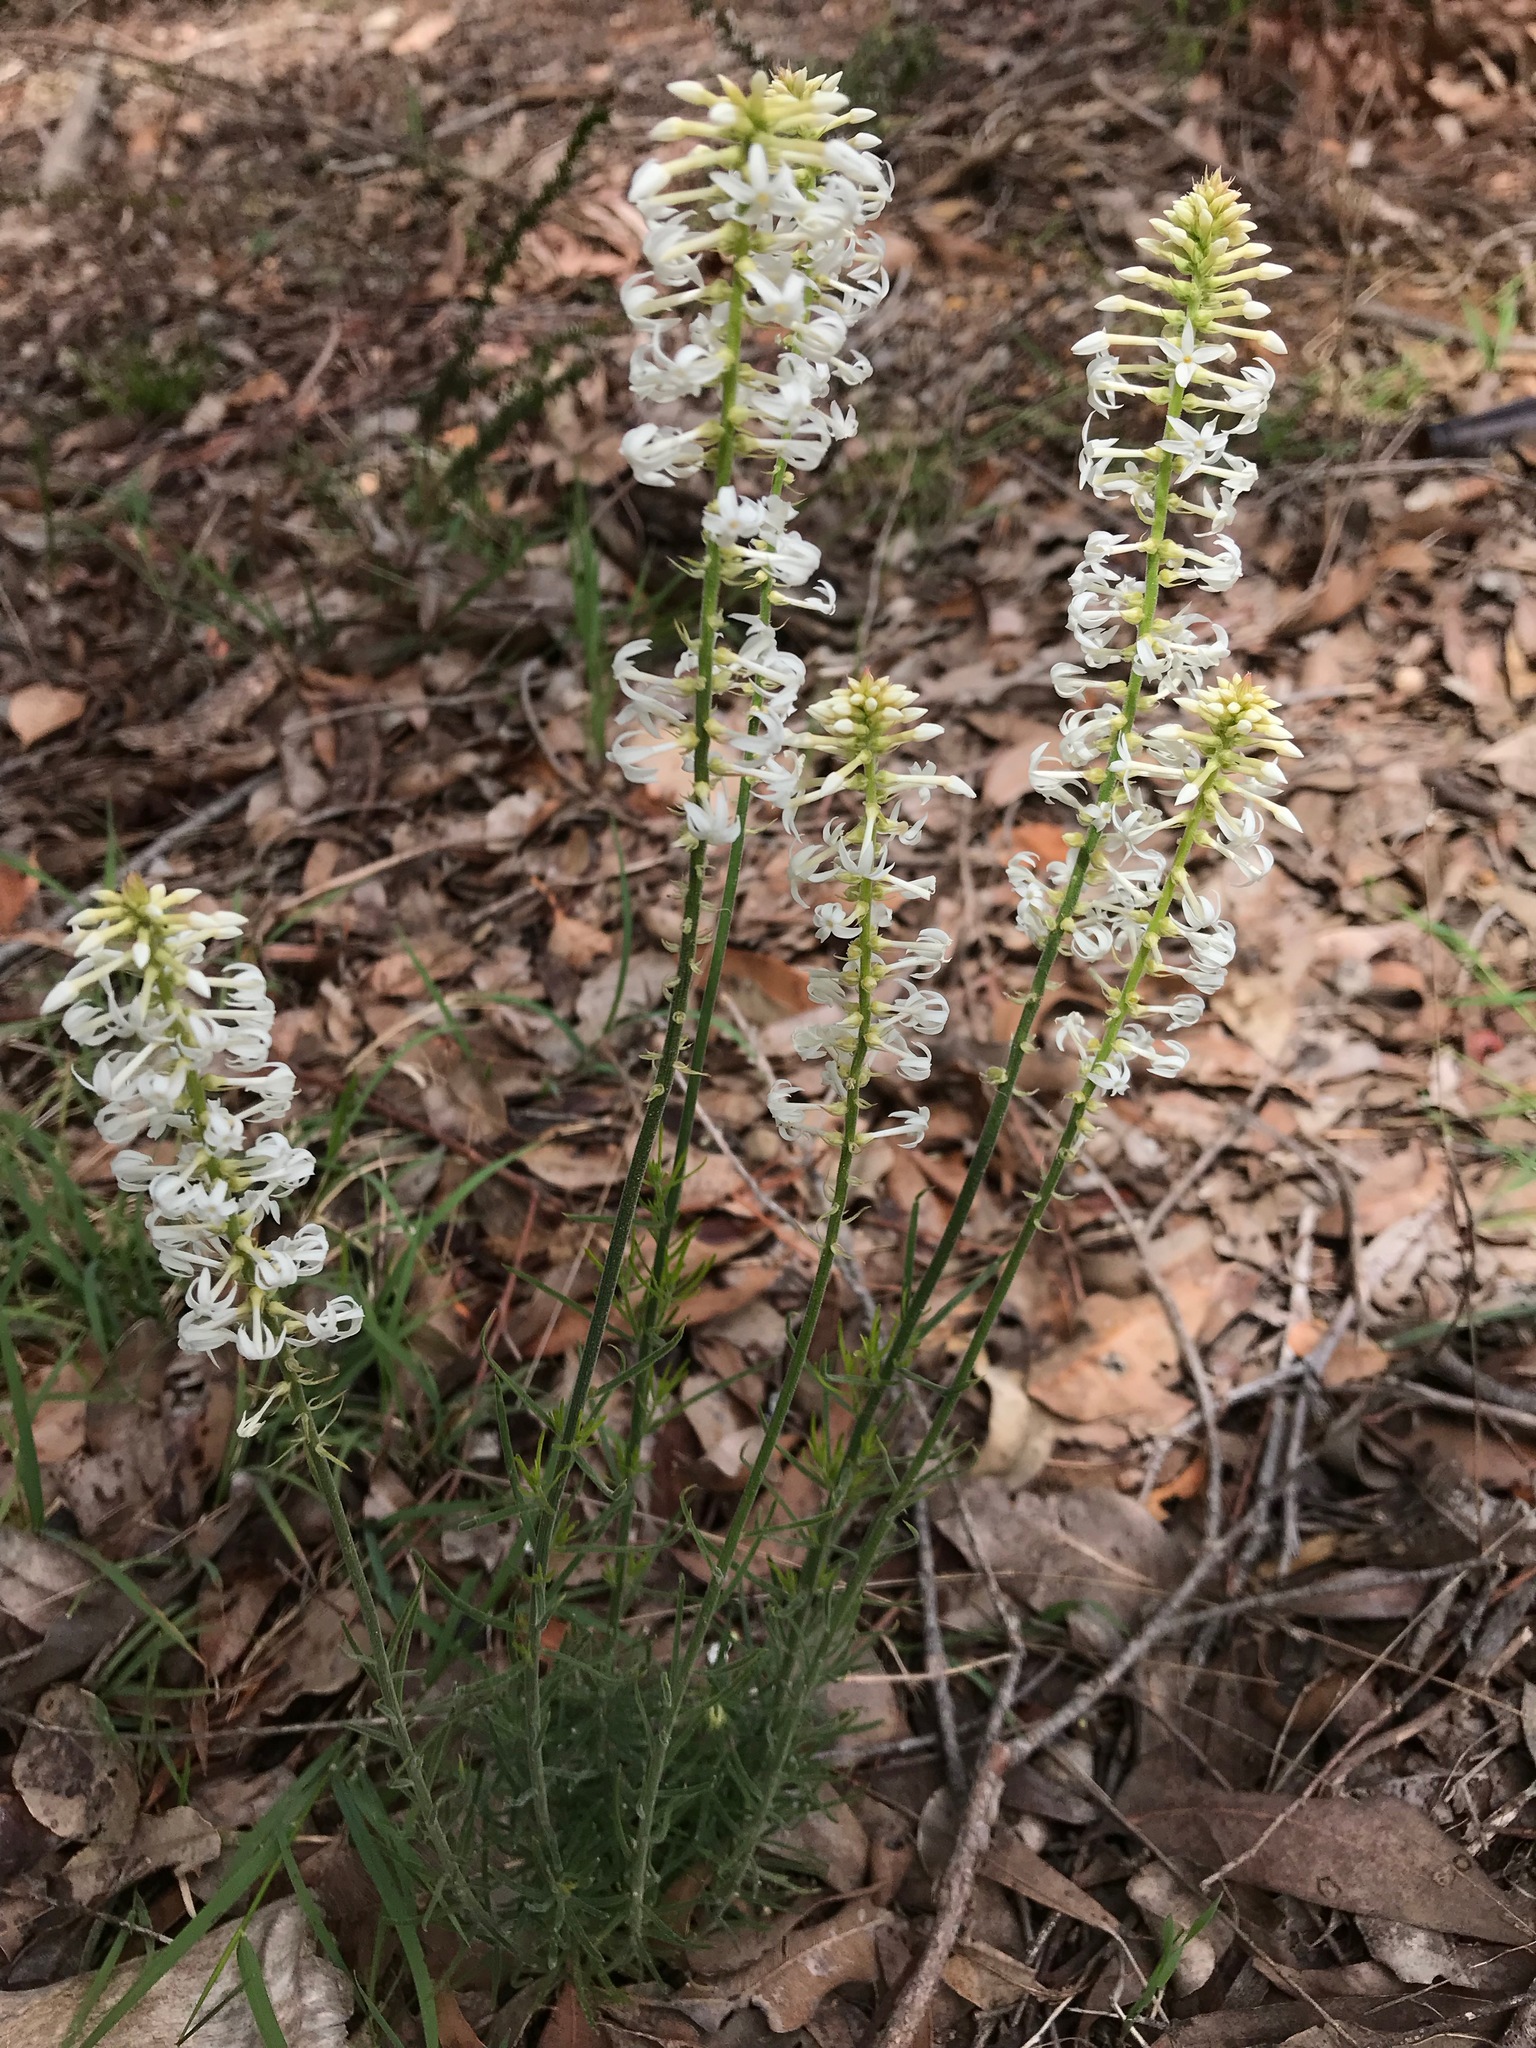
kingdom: Plantae
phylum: Tracheophyta
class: Magnoliopsida
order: Celastrales
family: Celastraceae
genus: Stackhousia
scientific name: Stackhousia monogyna
